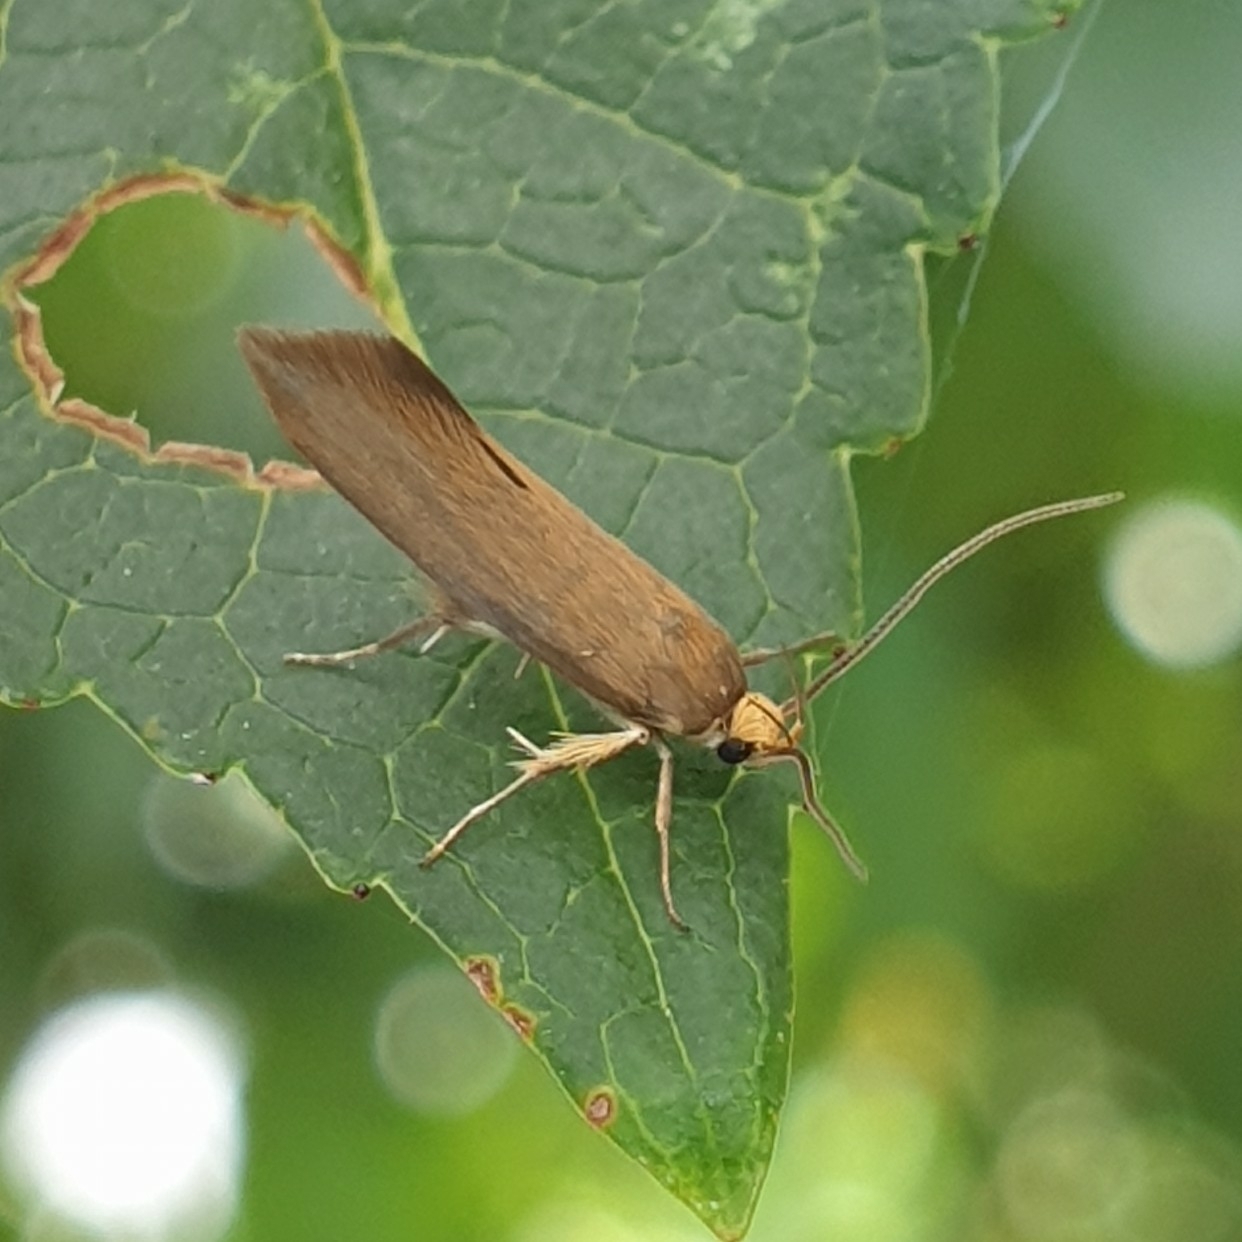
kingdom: Animalia
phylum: Arthropoda
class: Insecta
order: Lepidoptera
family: Oecophoridae
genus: Borkhausenia
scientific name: Borkhausenia Crassa unitella
